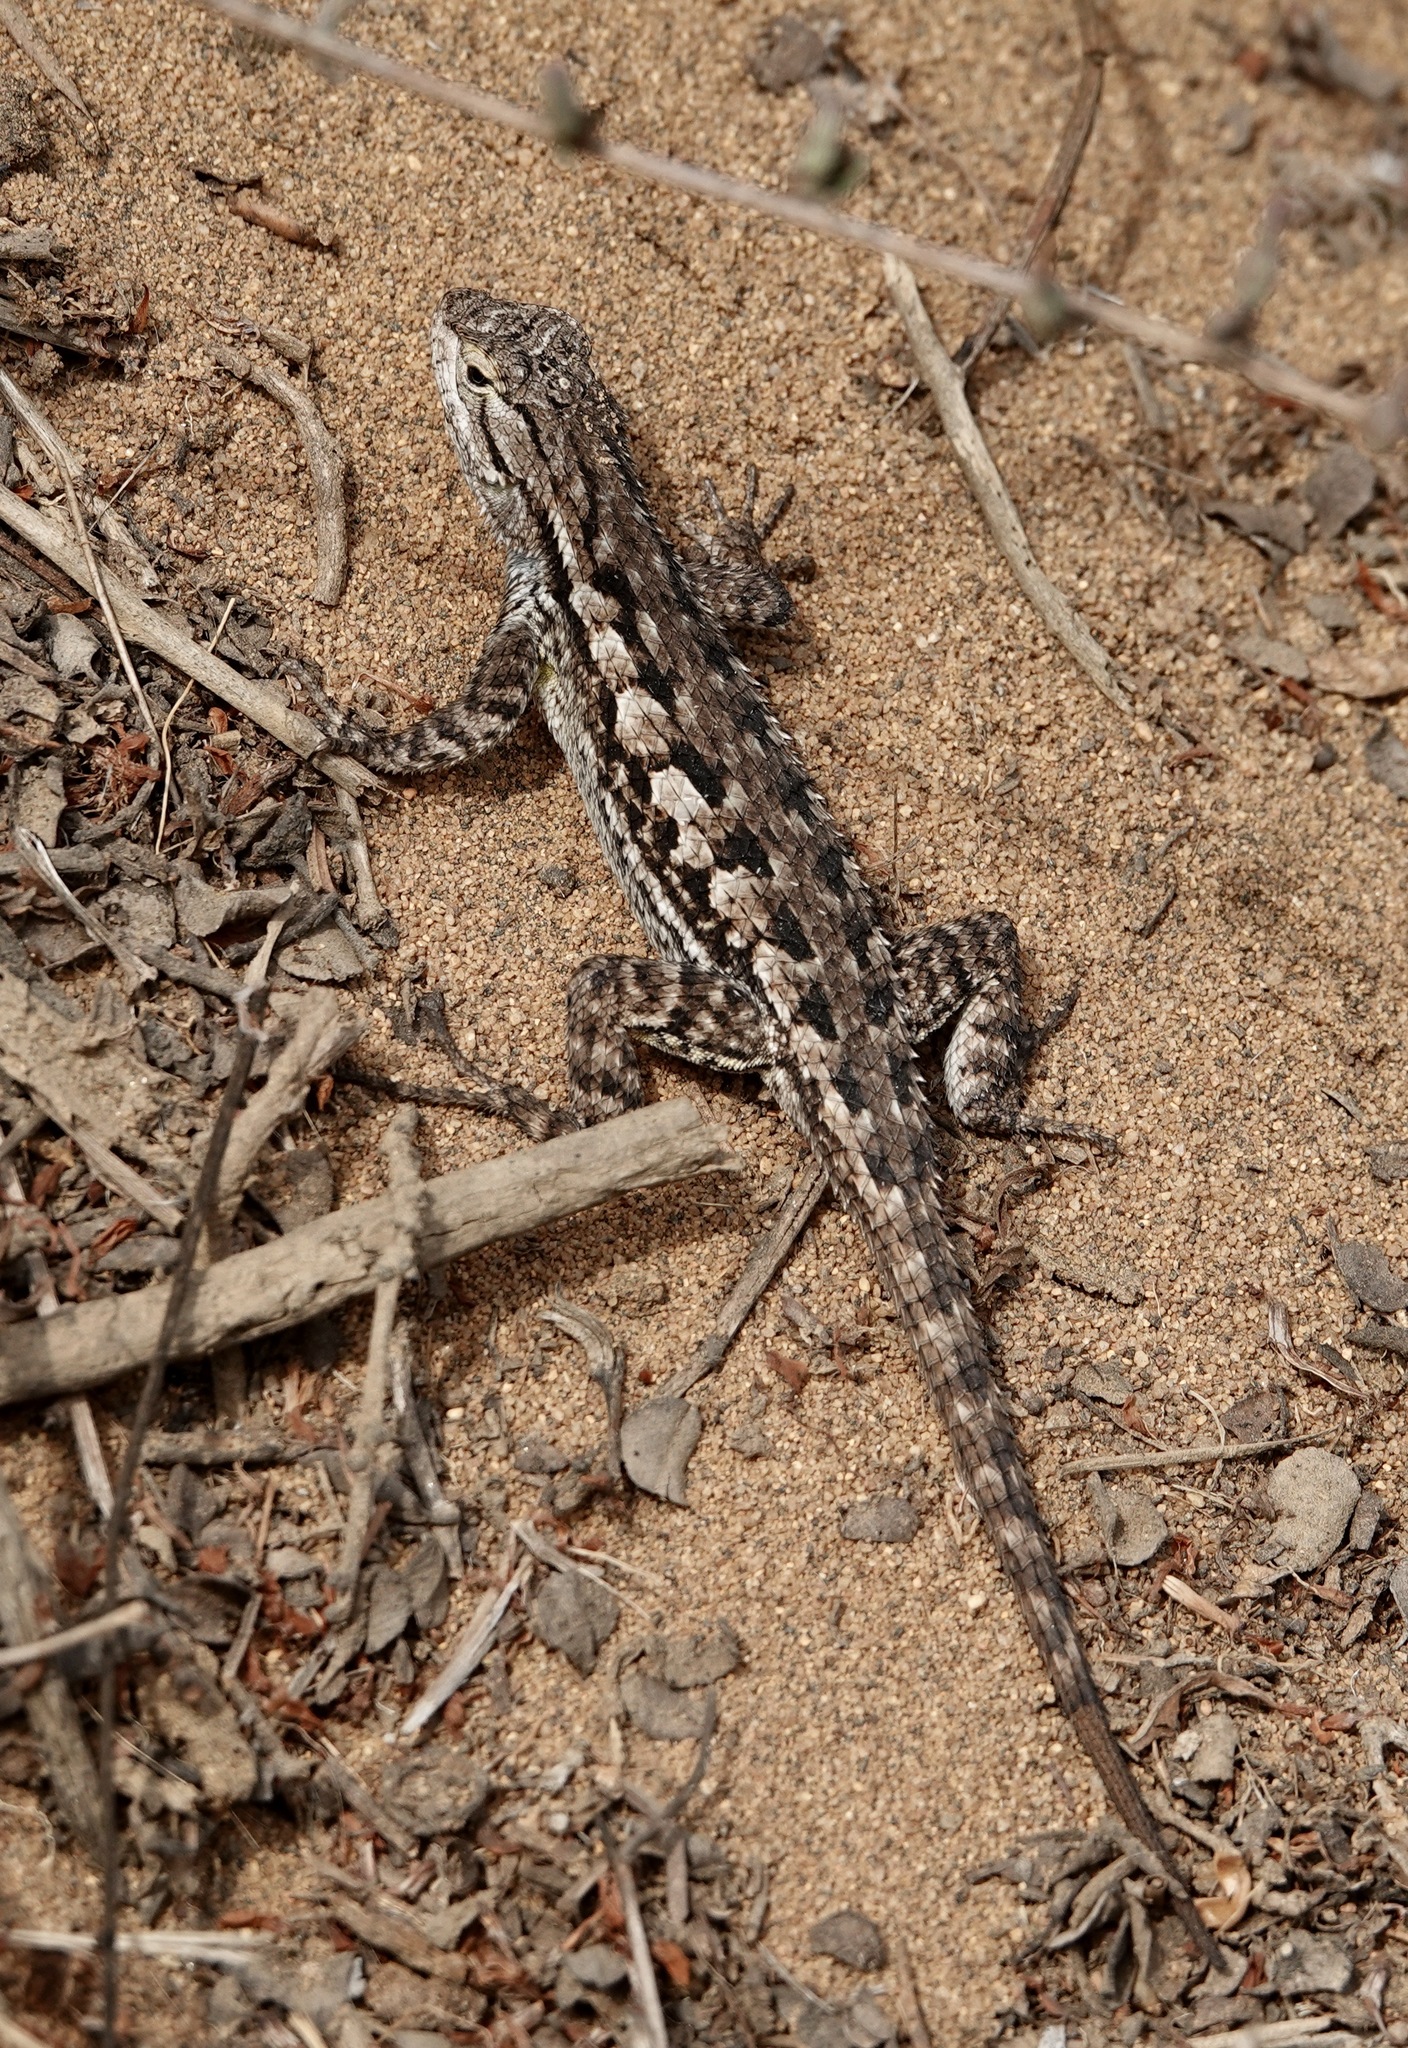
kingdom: Animalia
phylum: Chordata
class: Squamata
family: Phrynosomatidae
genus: Sceloporus
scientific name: Sceloporus occidentalis
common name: Western fence lizard
